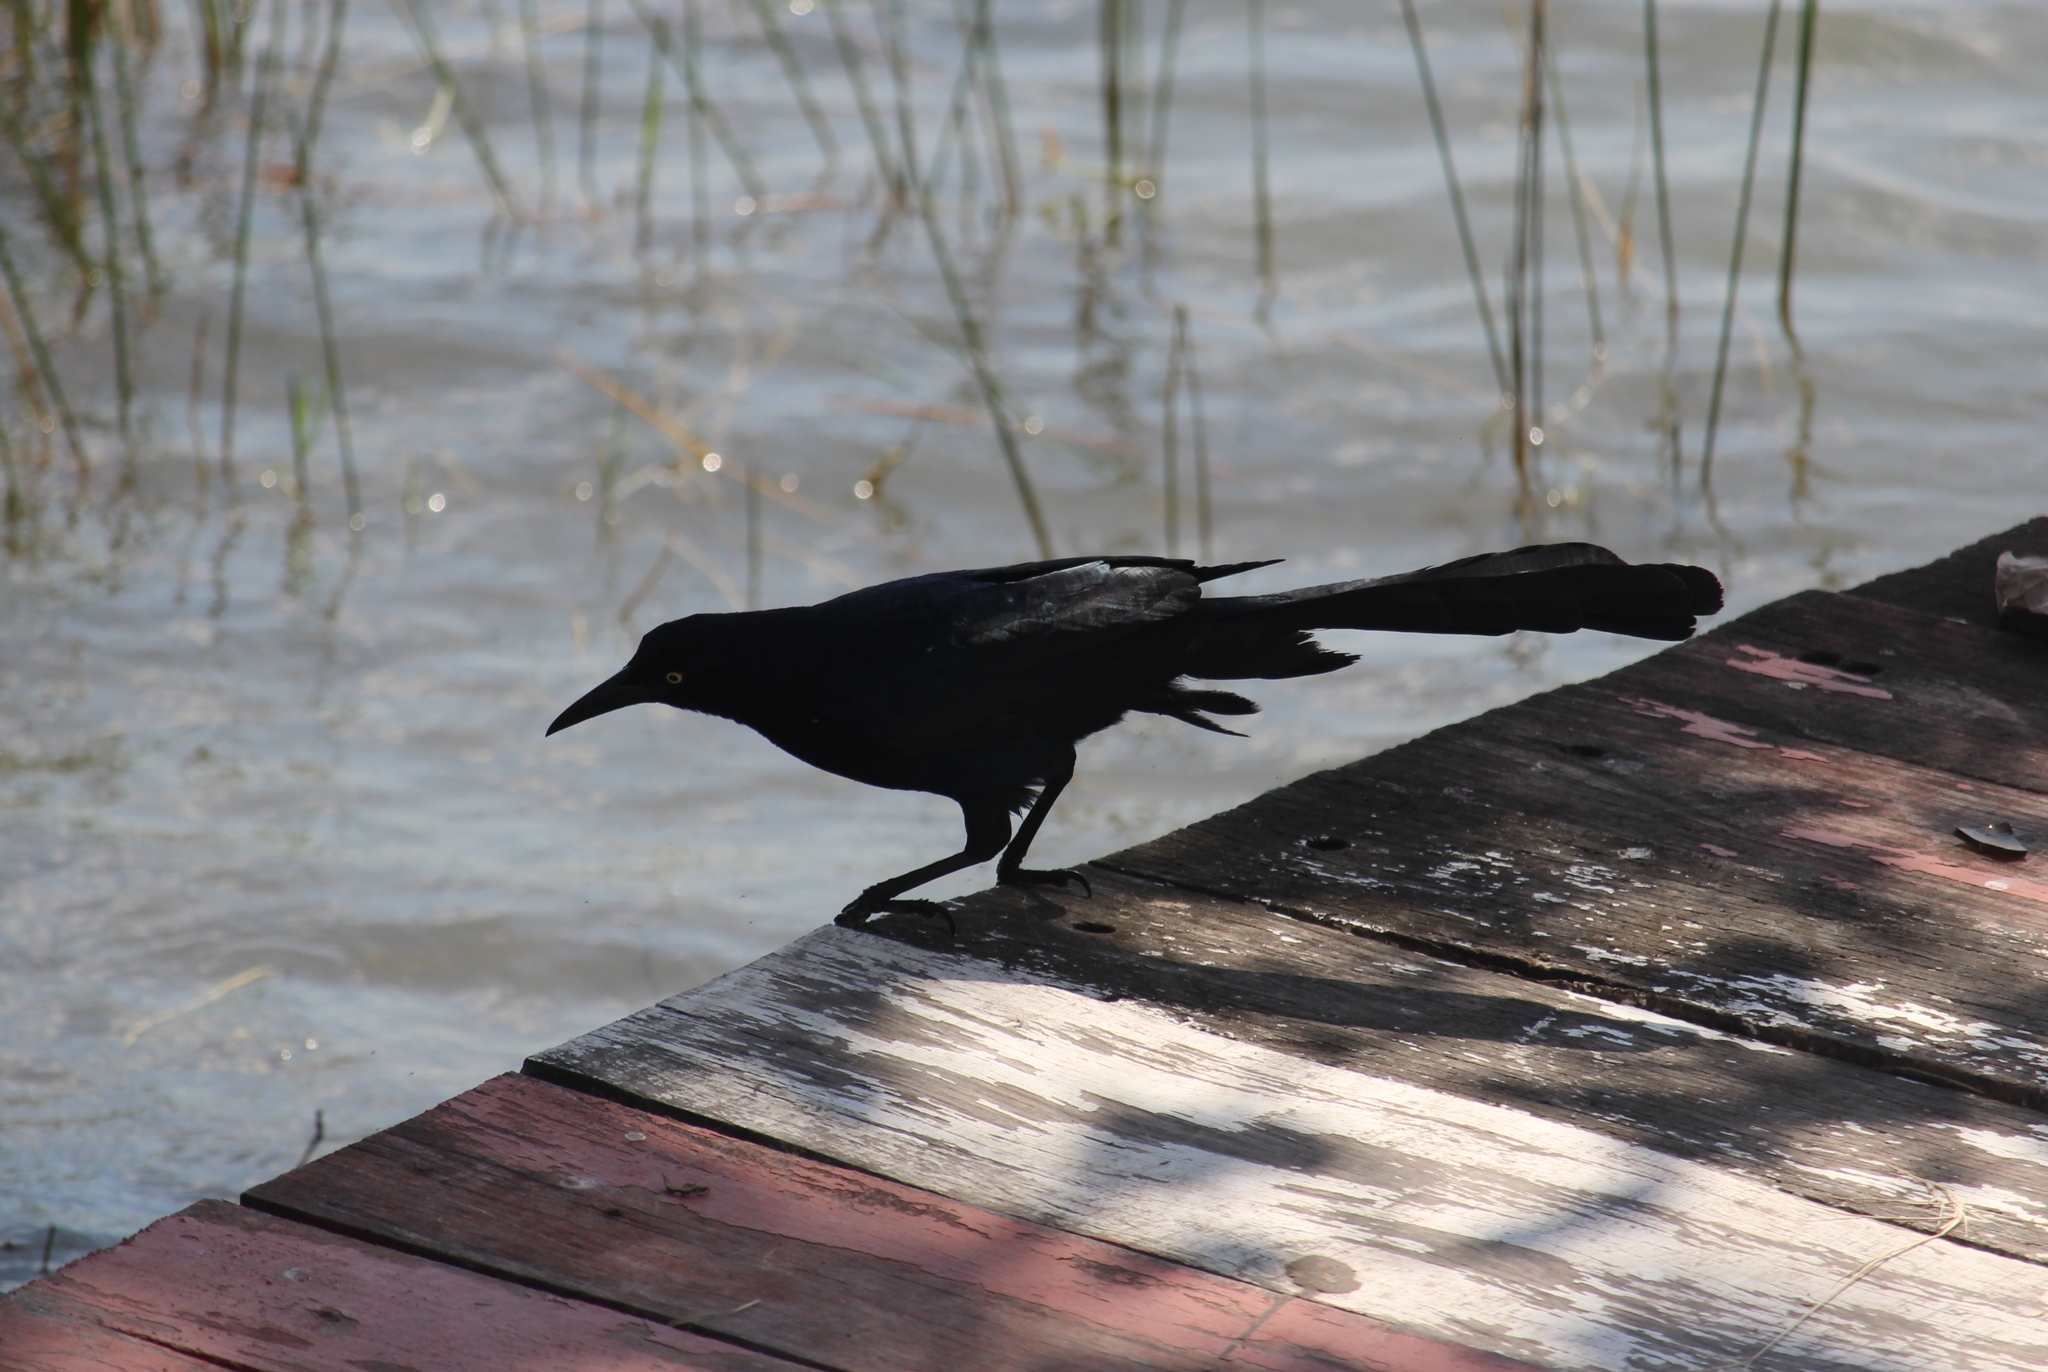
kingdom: Animalia
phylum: Chordata
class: Aves
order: Passeriformes
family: Icteridae
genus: Quiscalus
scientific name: Quiscalus mexicanus
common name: Great-tailed grackle
